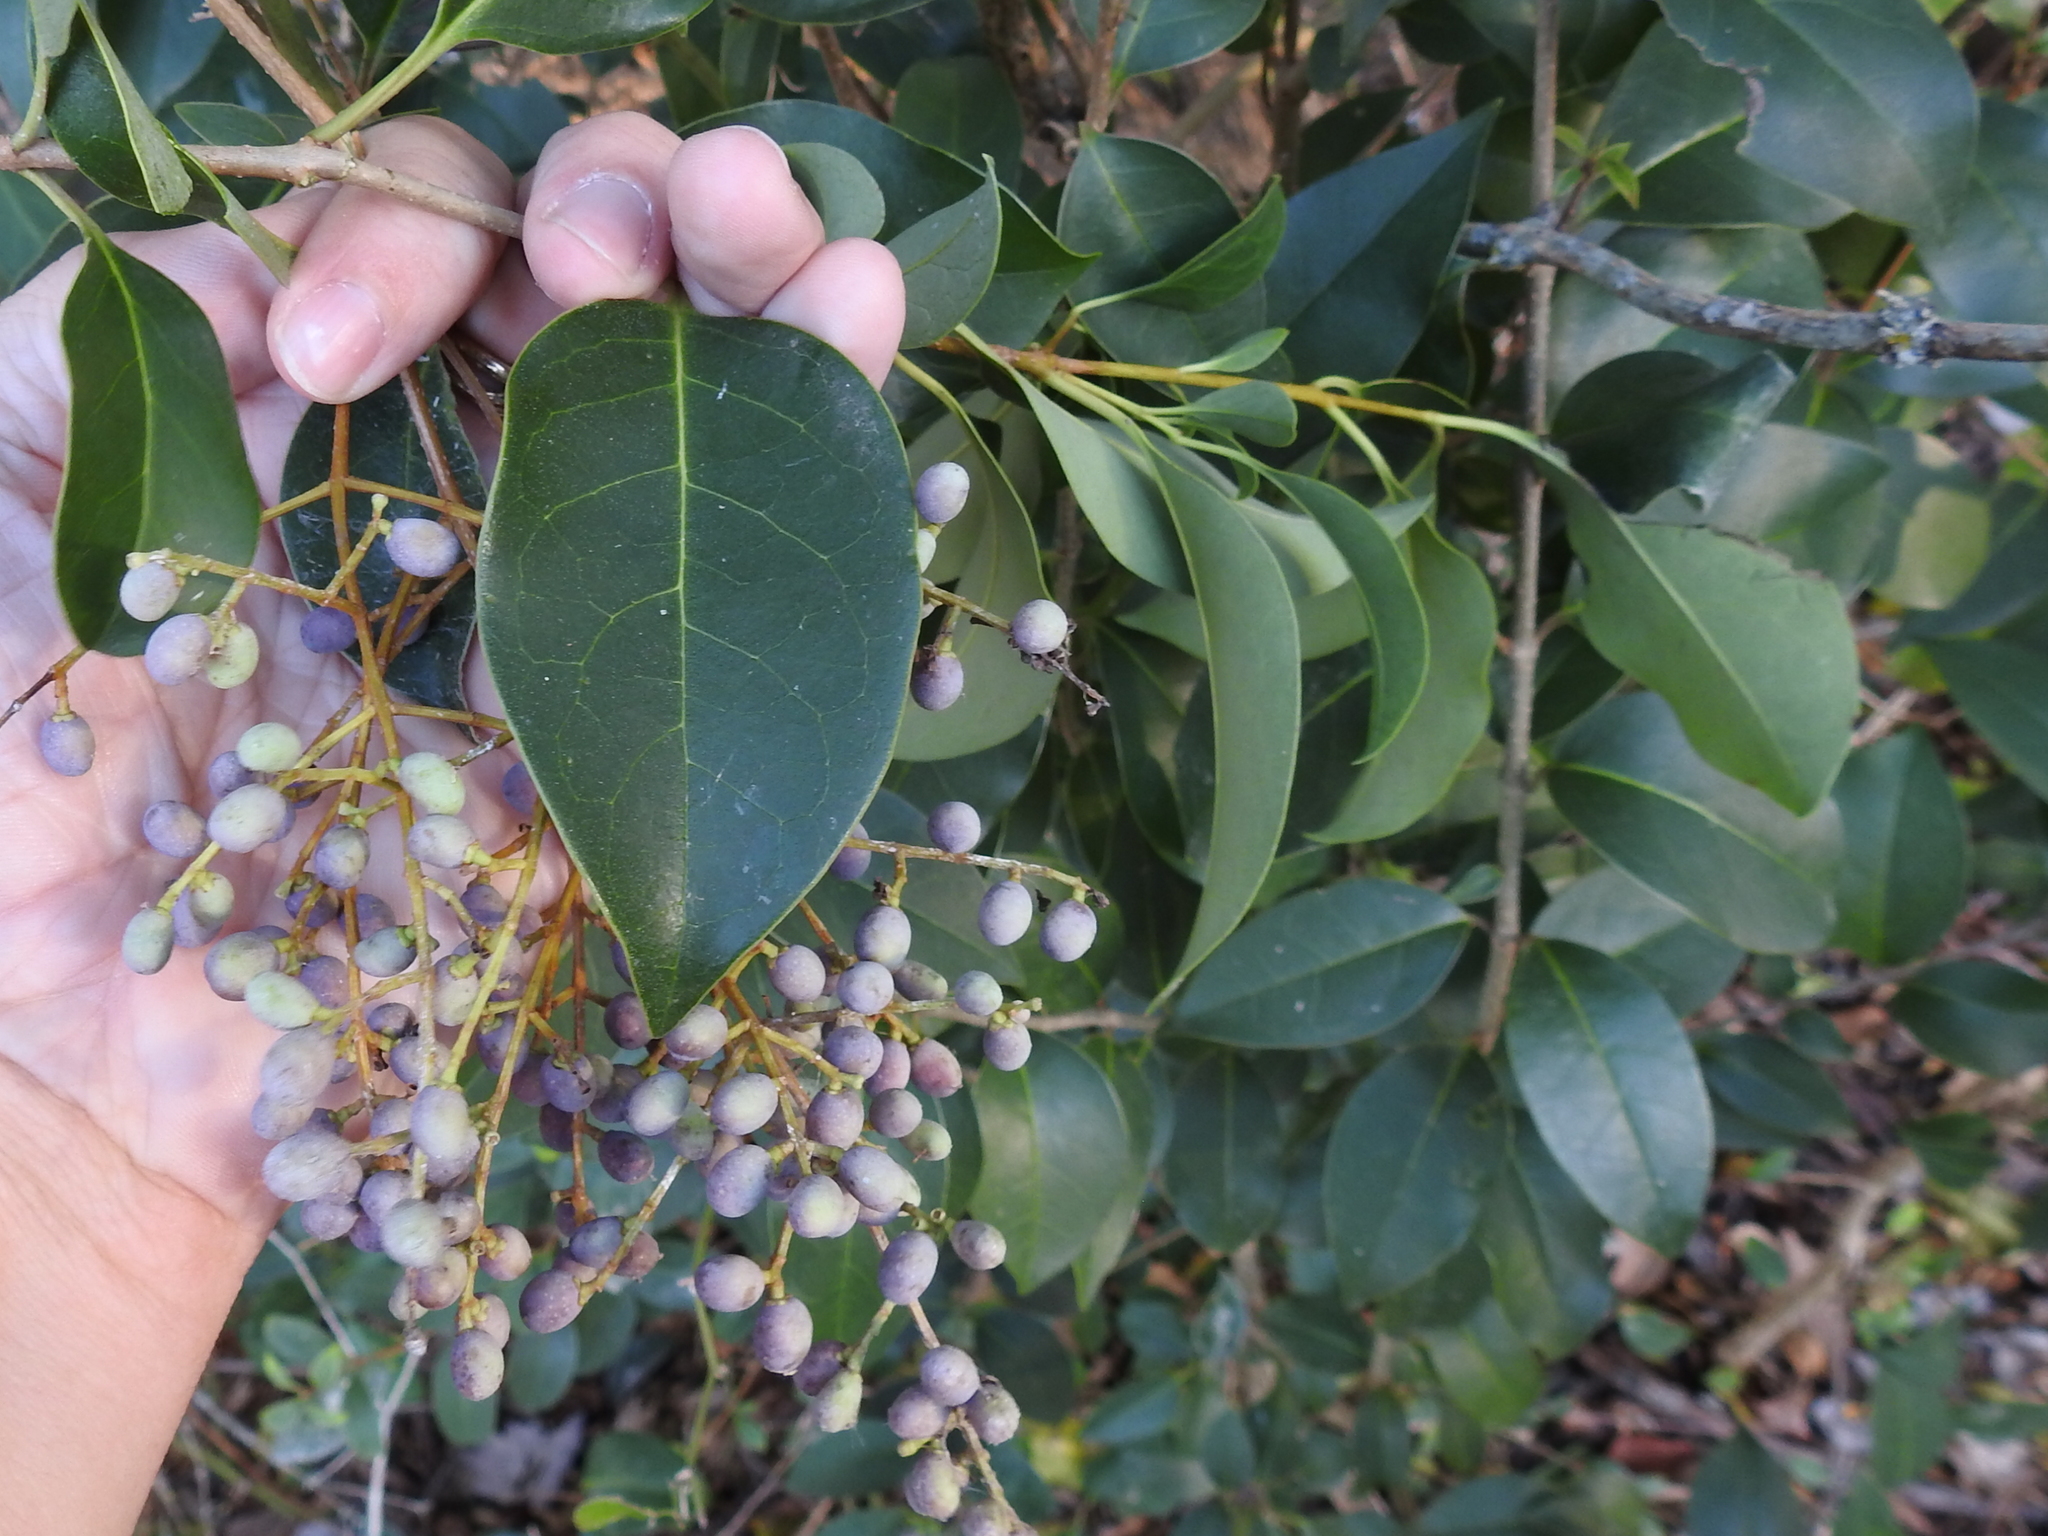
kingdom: Plantae
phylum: Tracheophyta
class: Magnoliopsida
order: Lamiales
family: Oleaceae
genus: Ligustrum
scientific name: Ligustrum lucidum
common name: Glossy privet
